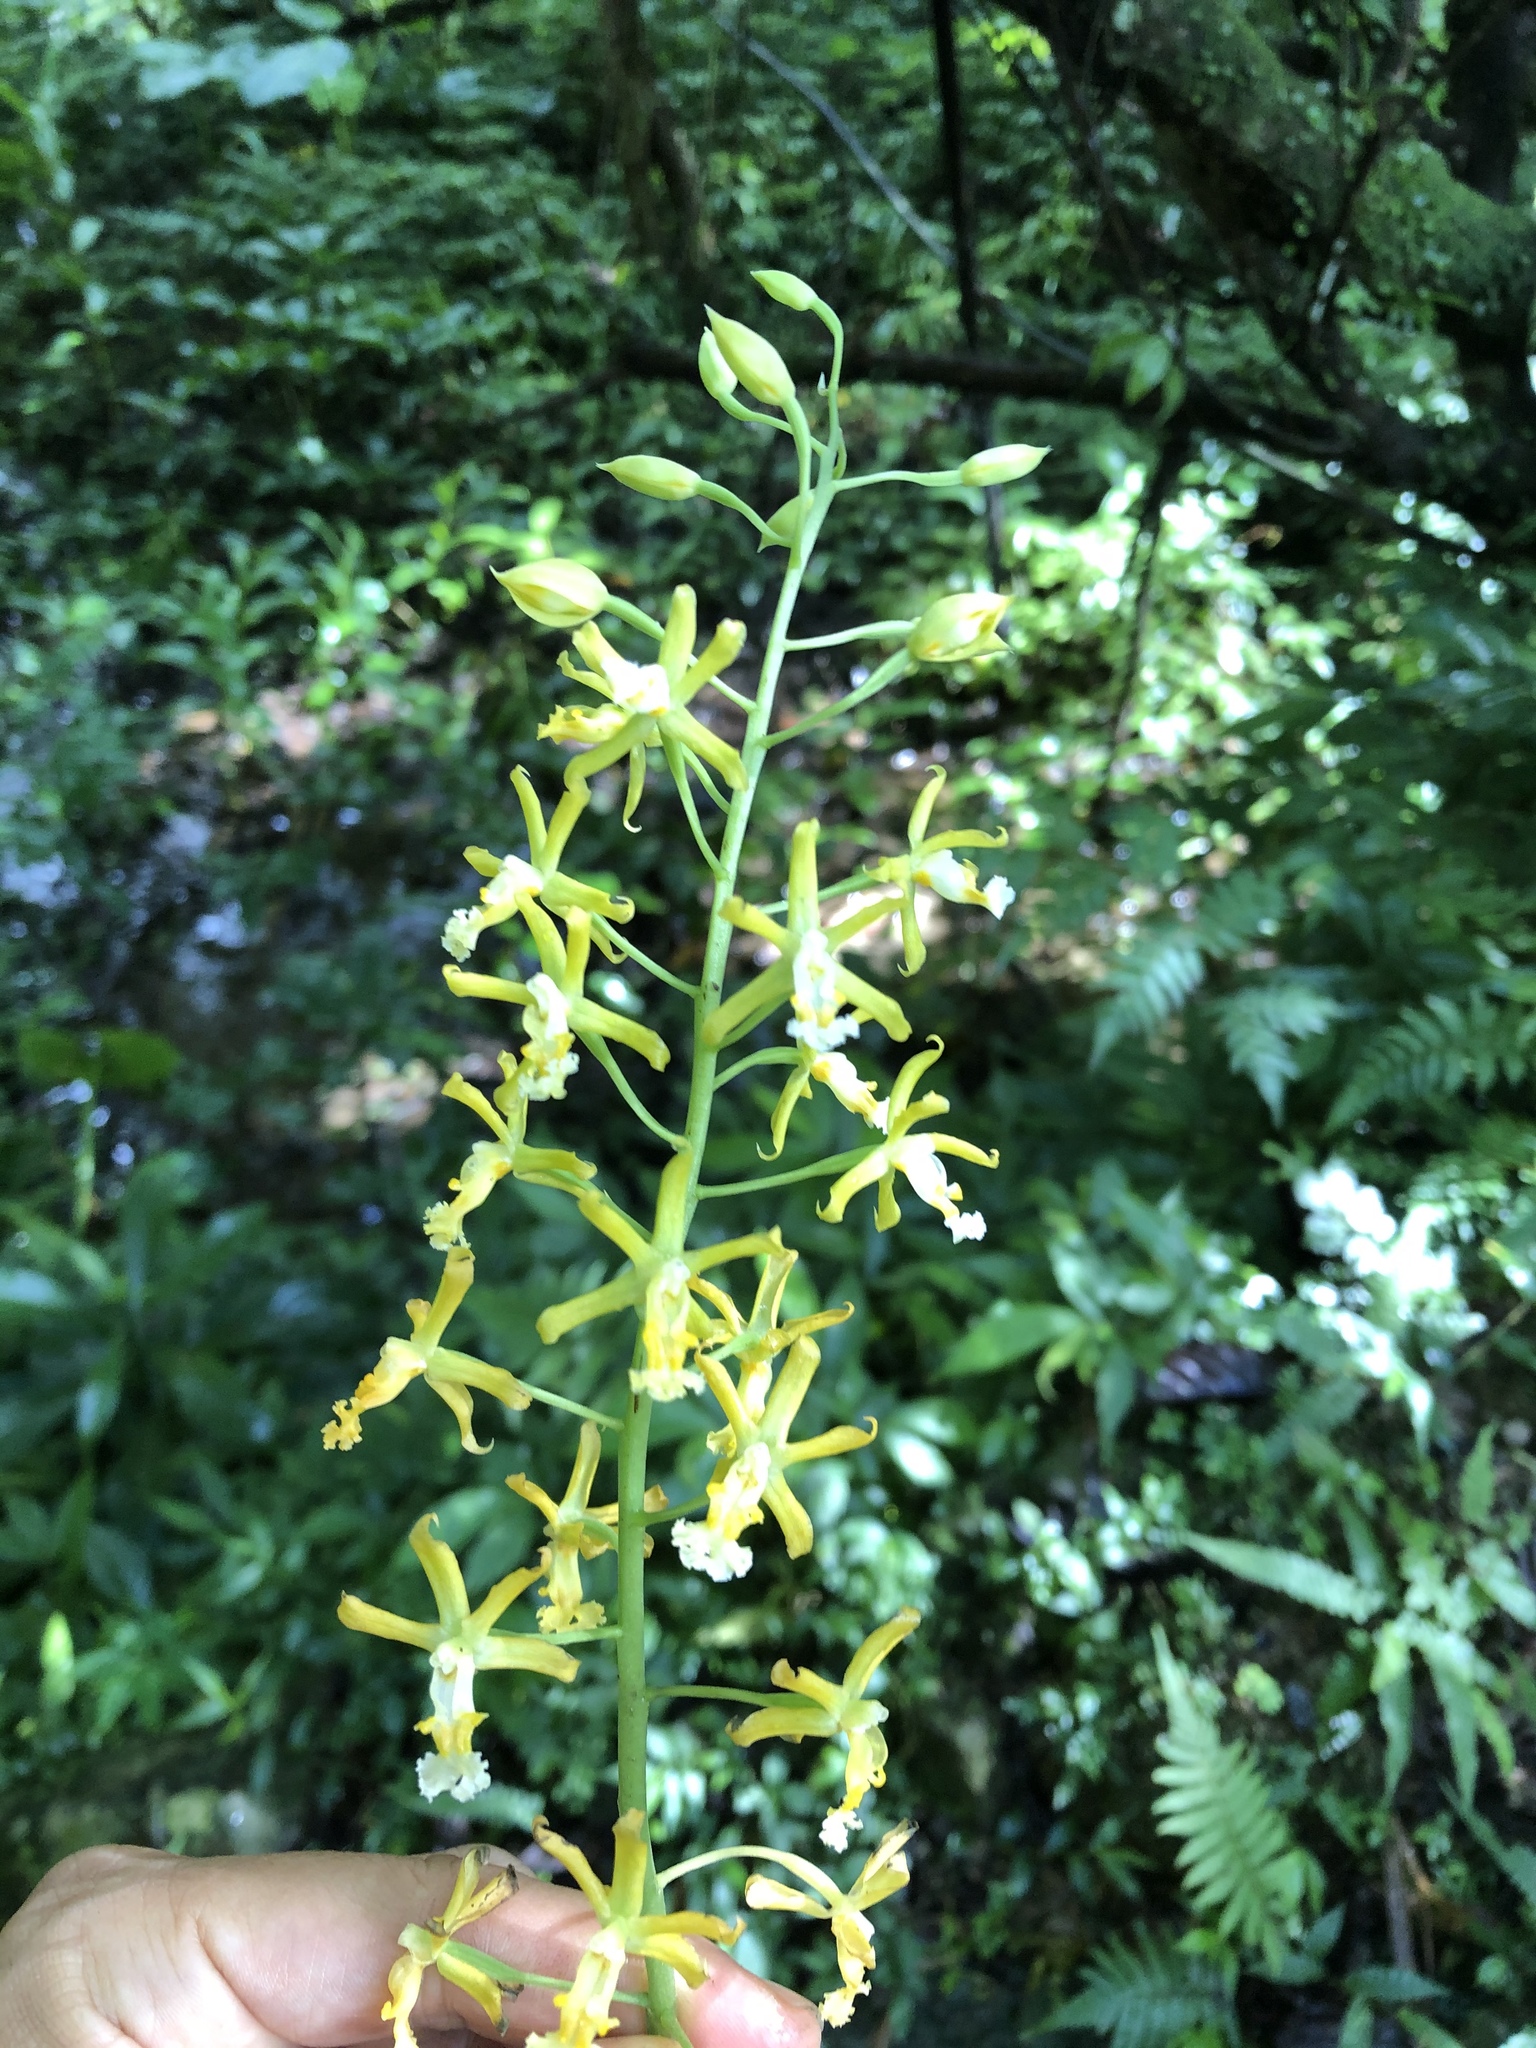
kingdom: Plantae
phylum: Tracheophyta
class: Liliopsida
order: Asparagales
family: Orchidaceae
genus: Calanthe
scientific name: Calanthe obcordata
